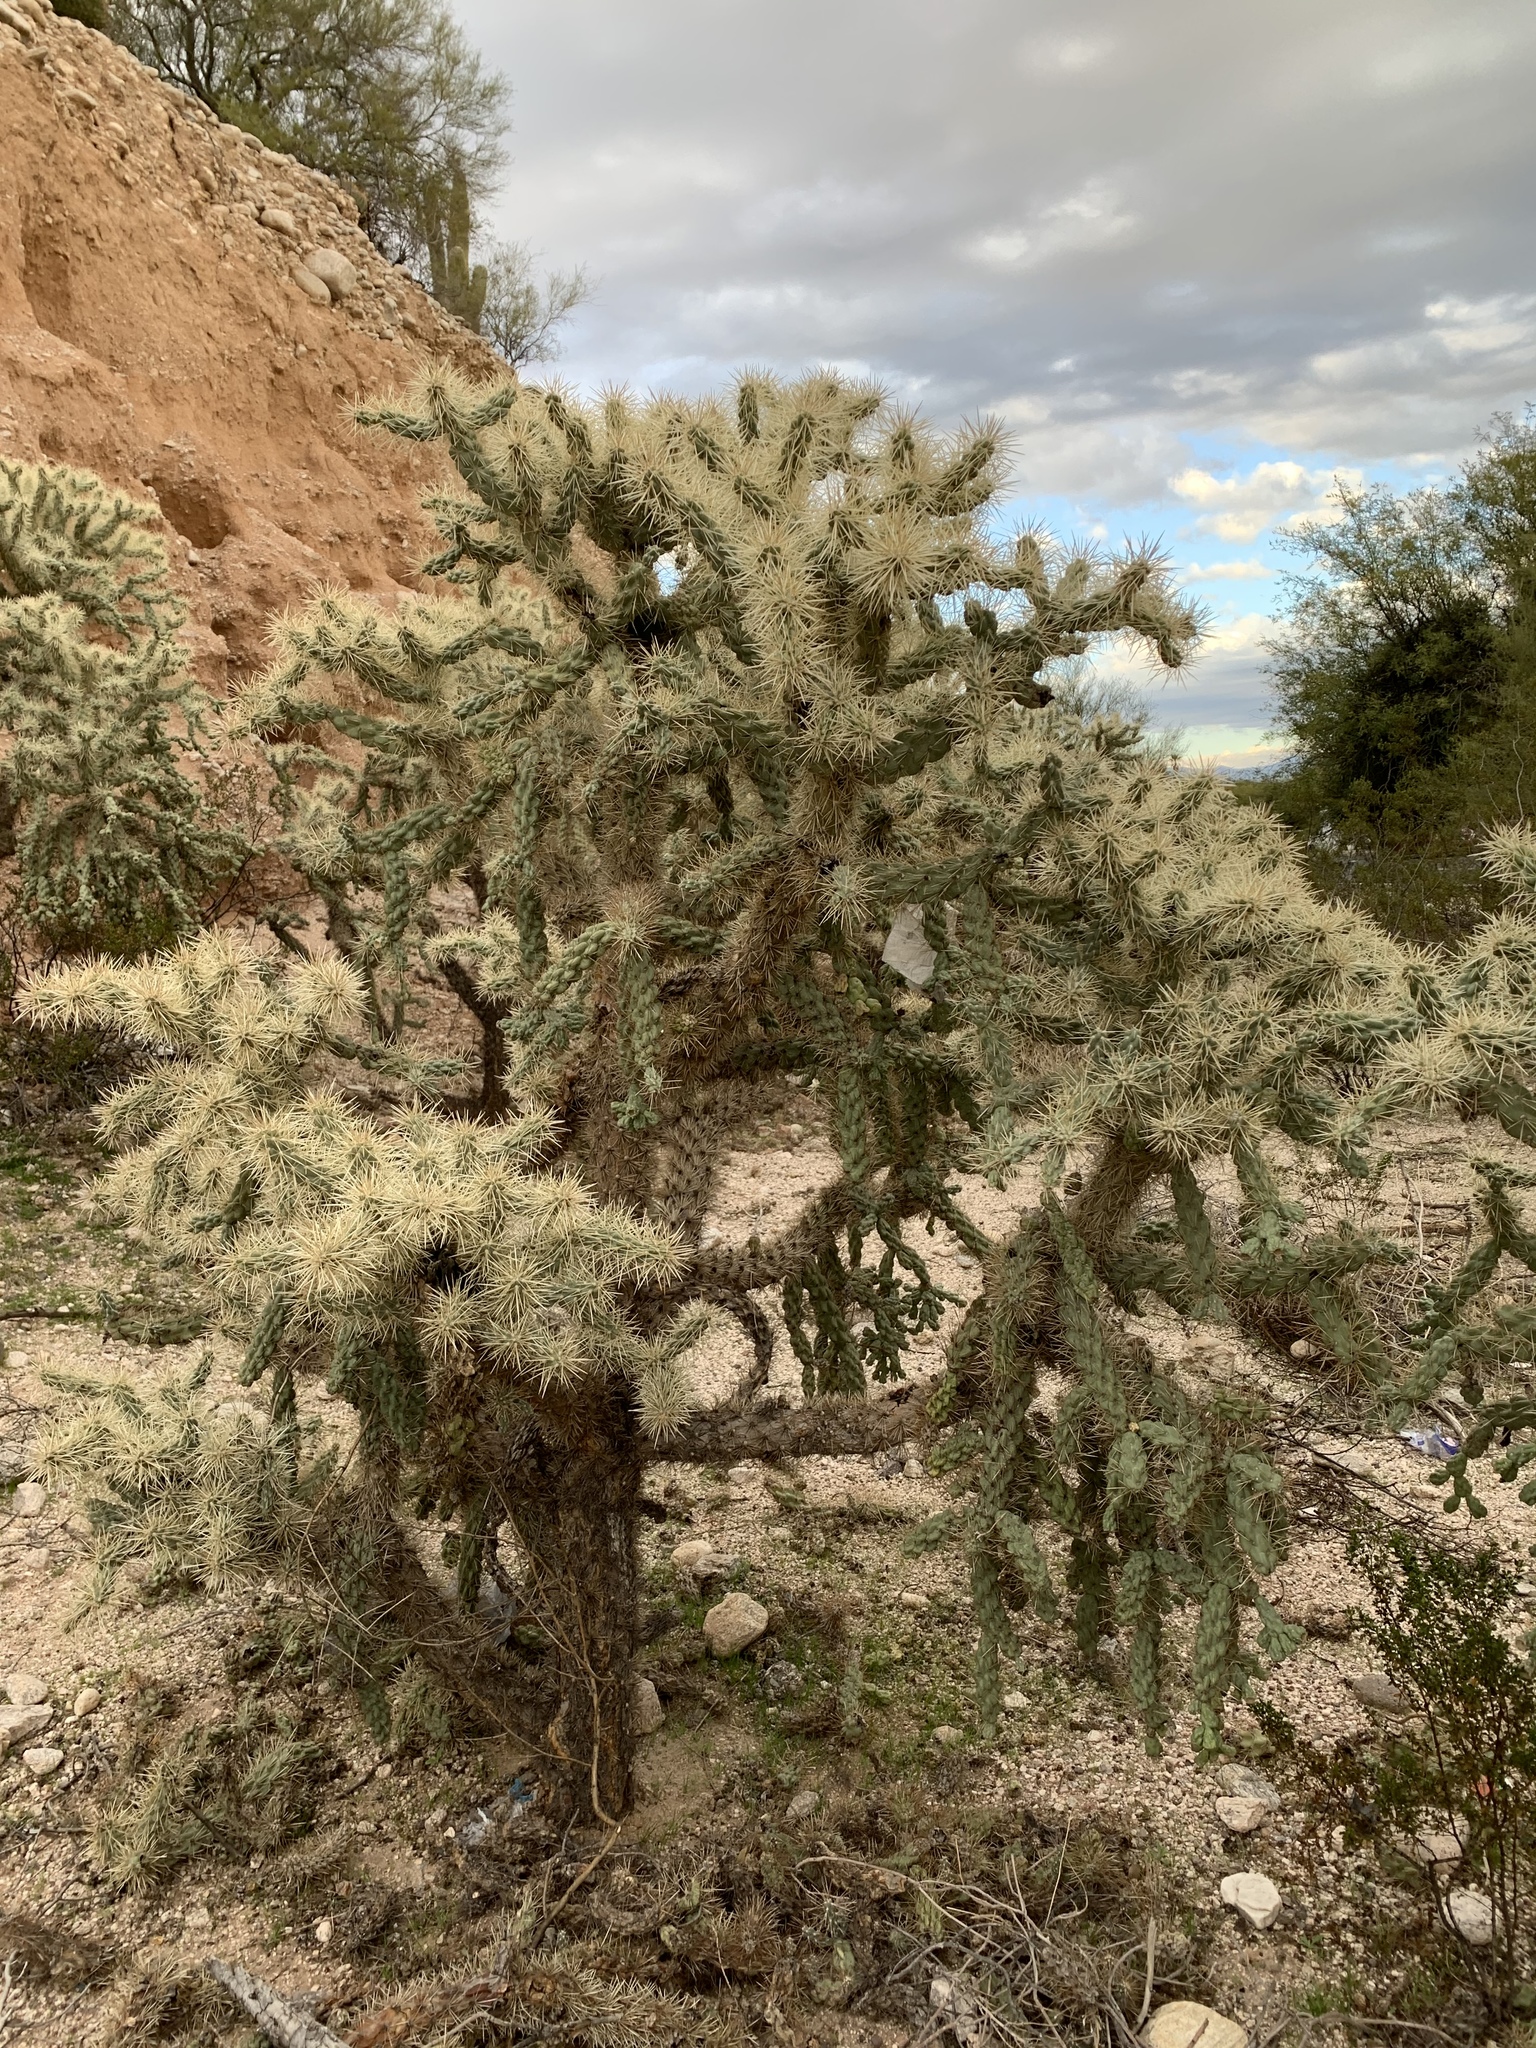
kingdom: Plantae
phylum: Tracheophyta
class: Magnoliopsida
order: Caryophyllales
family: Cactaceae
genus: Cylindropuntia
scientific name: Cylindropuntia fulgida
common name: Jumping cholla
